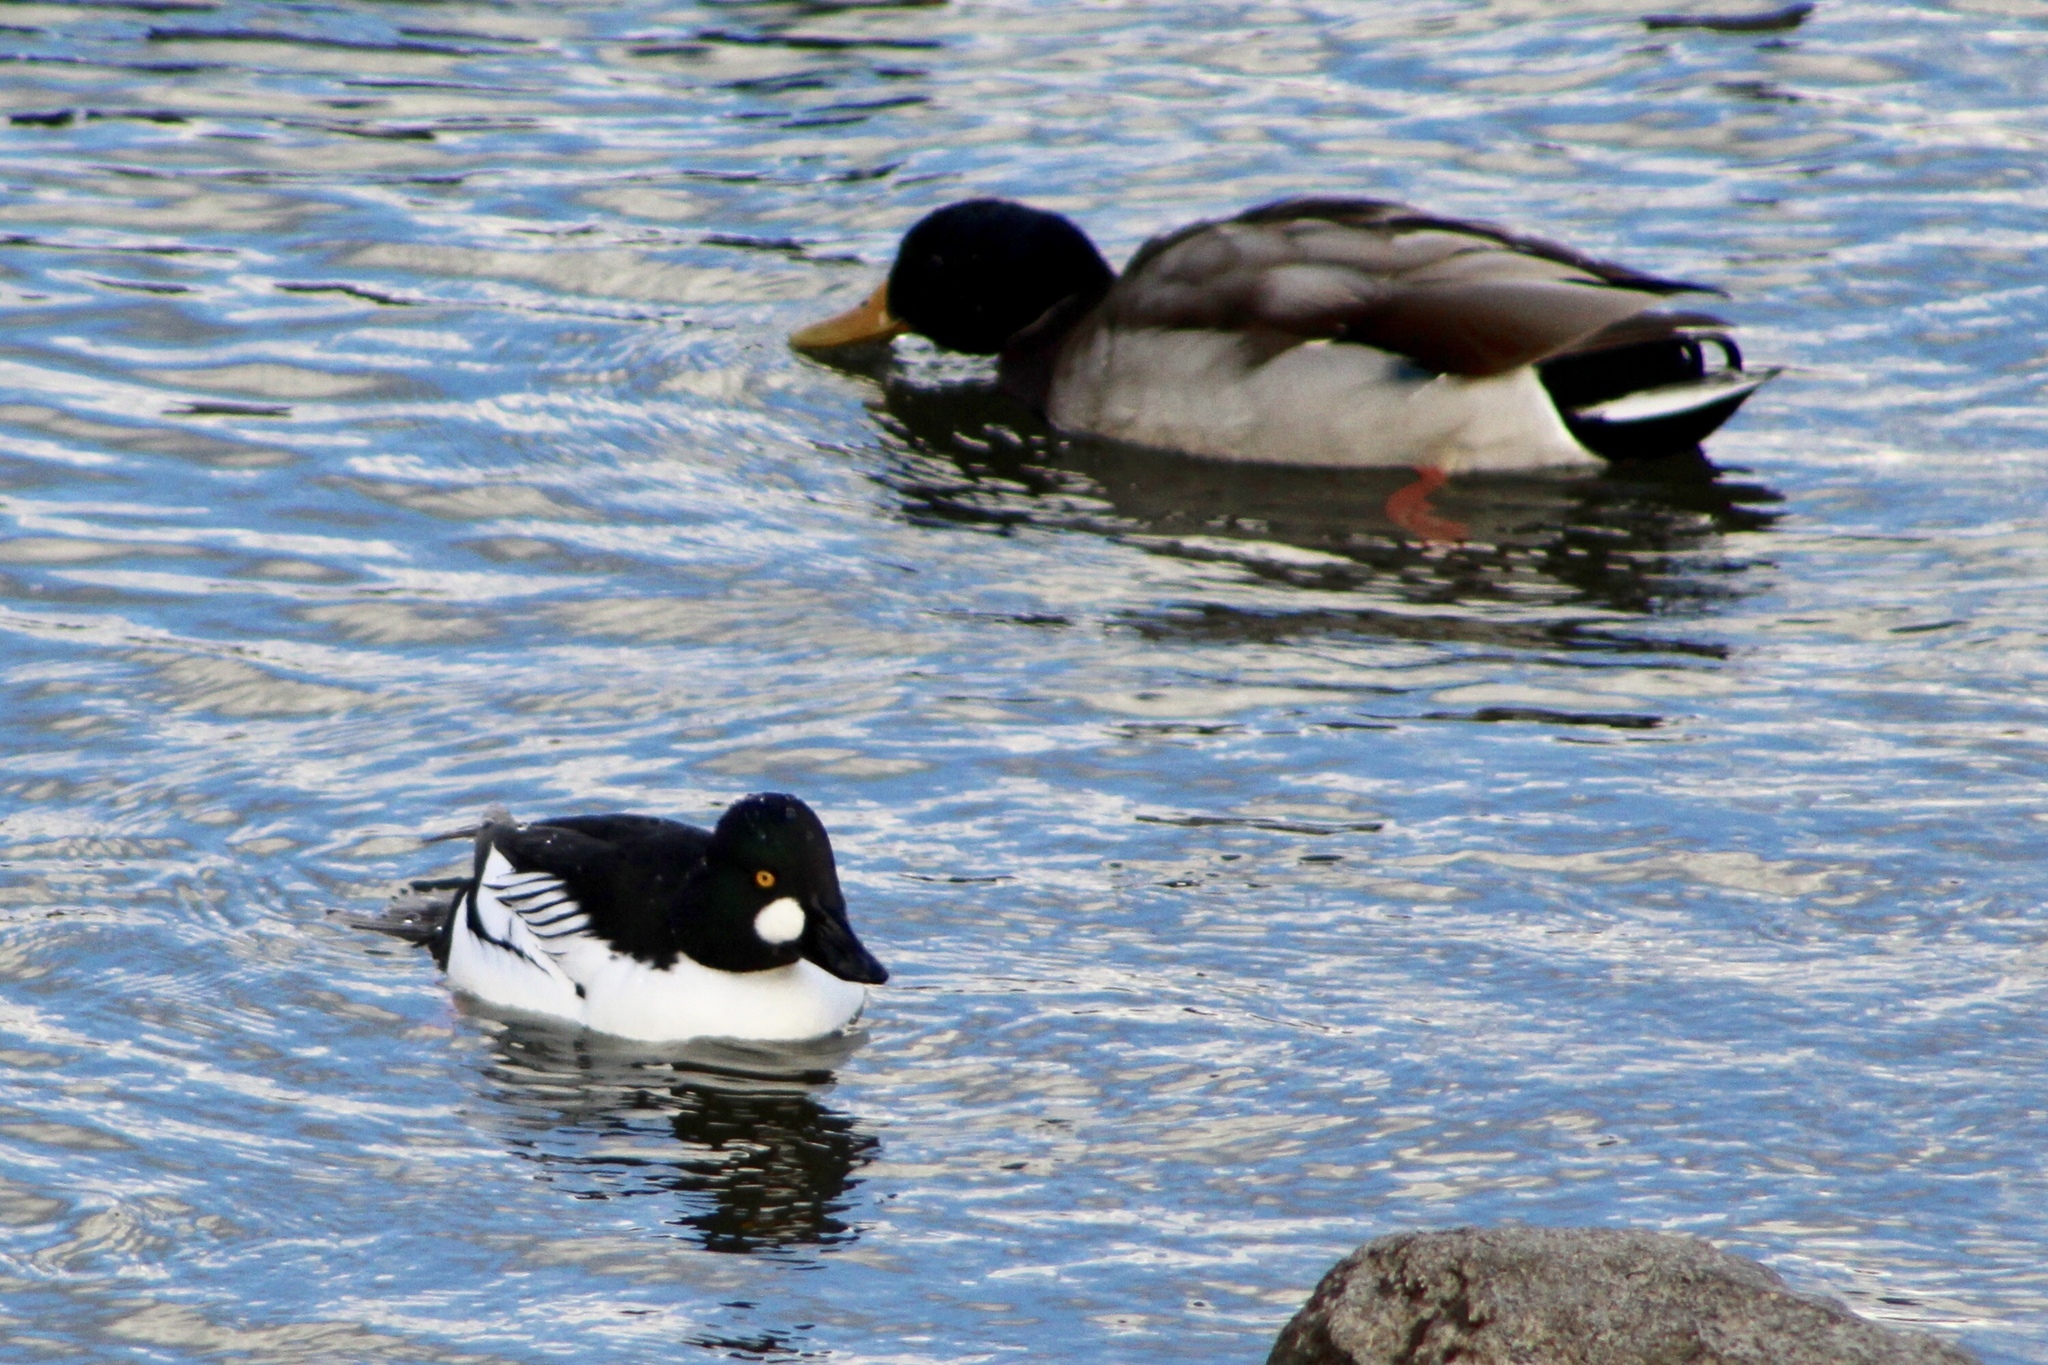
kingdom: Animalia
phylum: Chordata
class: Aves
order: Anseriformes
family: Anatidae
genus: Bucephala
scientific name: Bucephala clangula
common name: Common goldeneye
